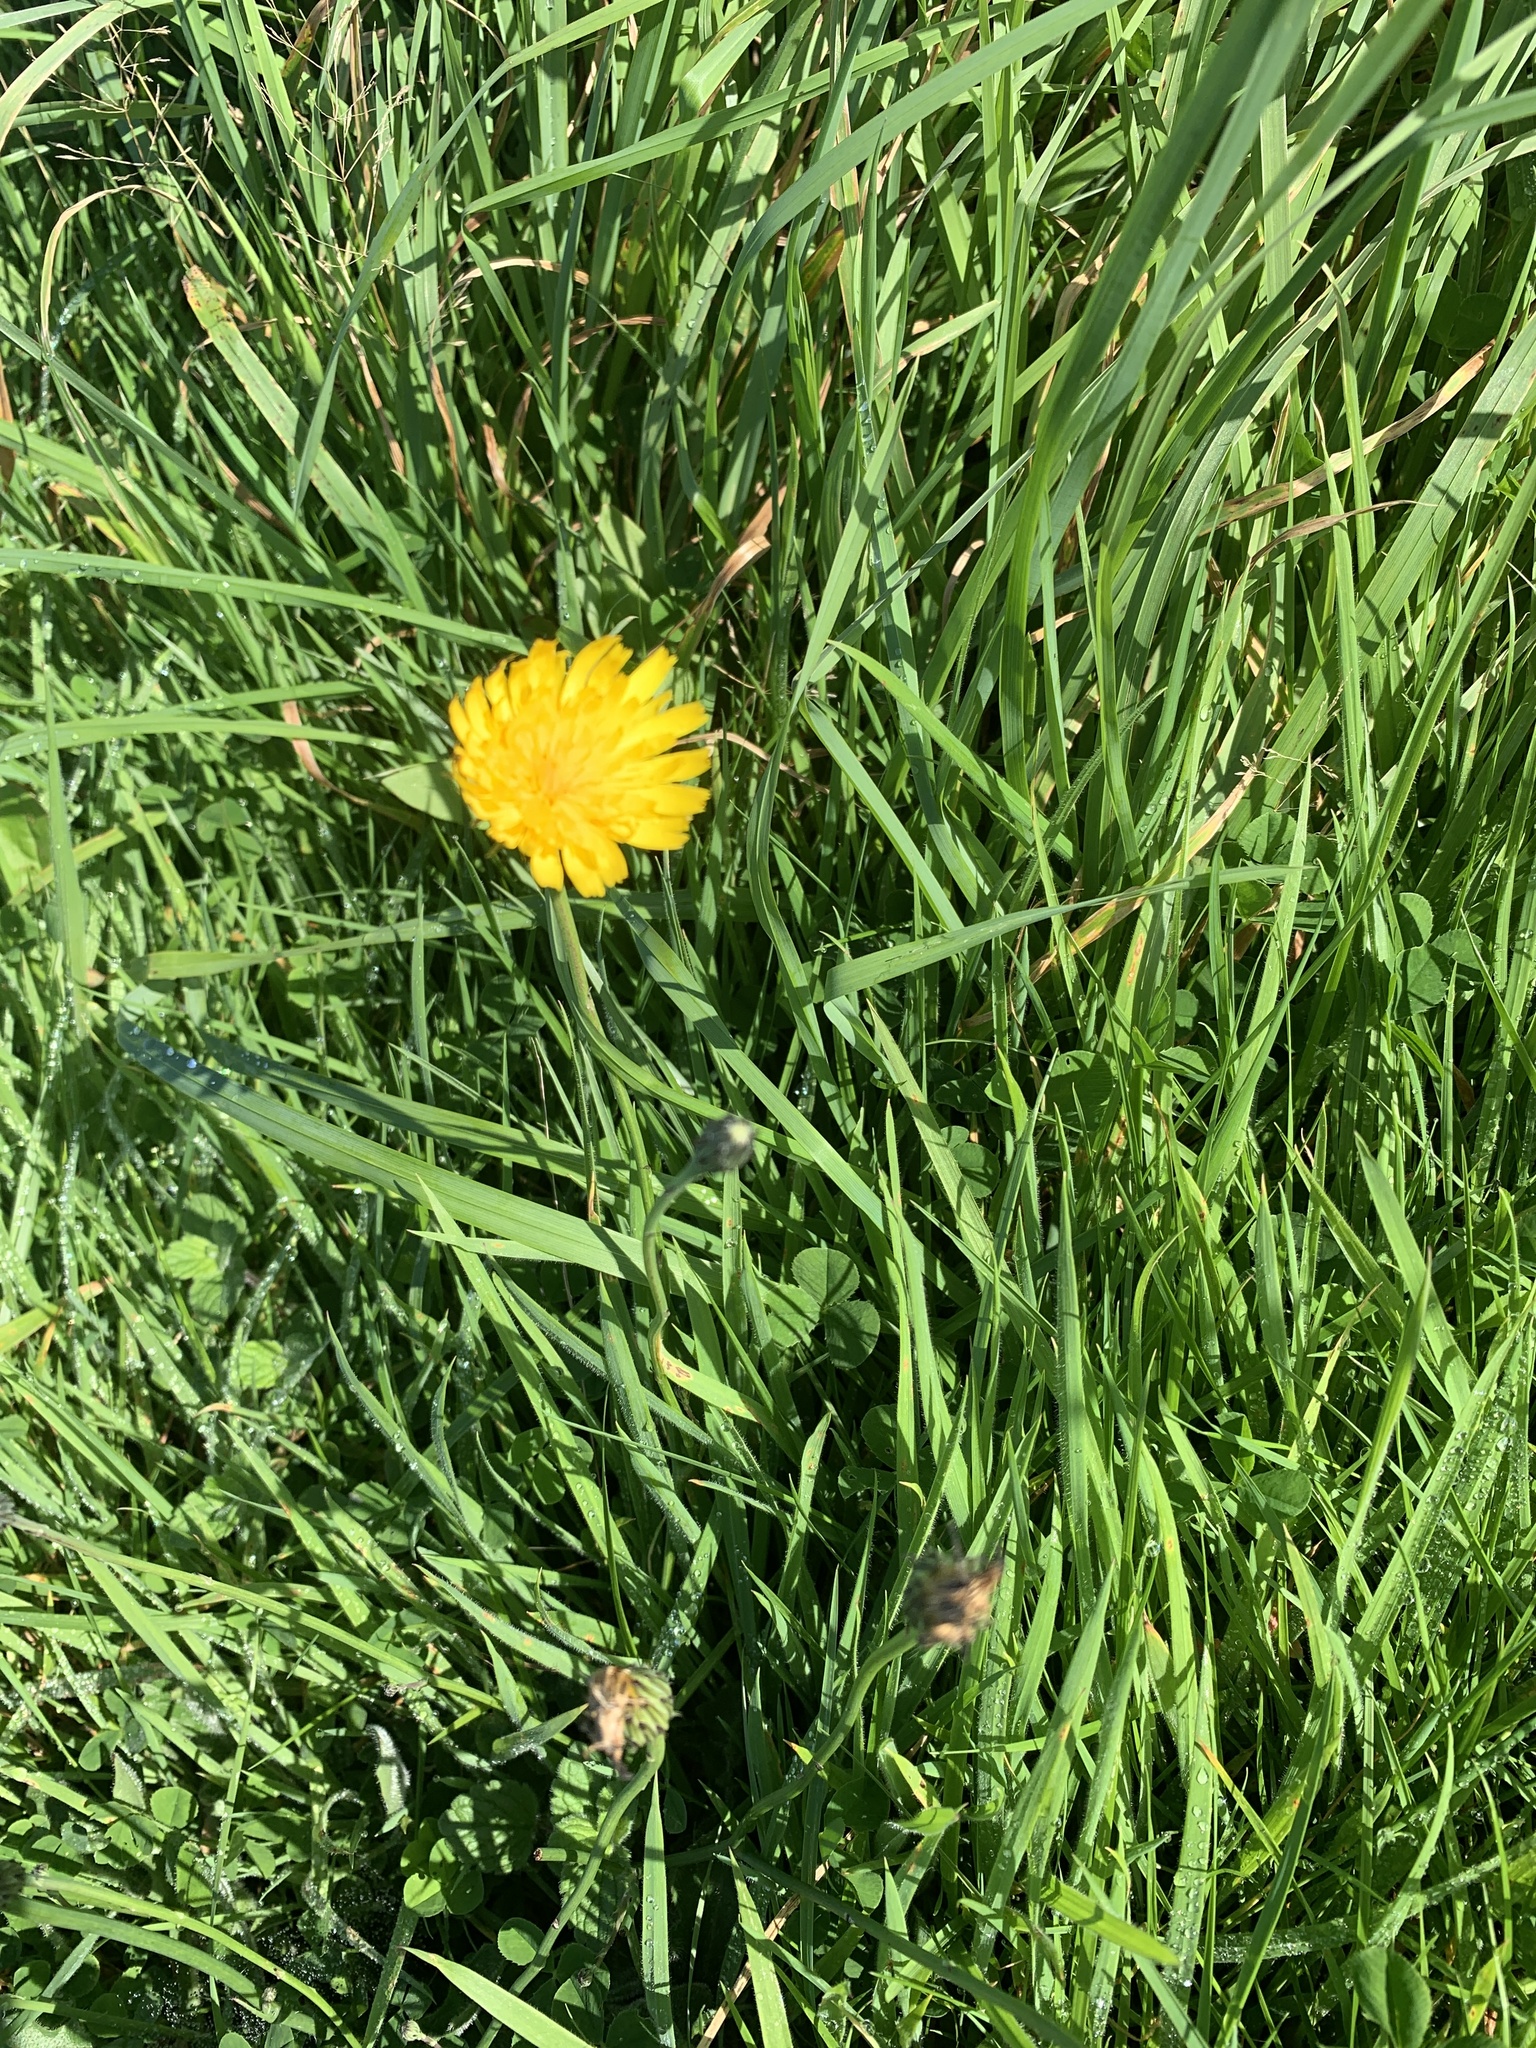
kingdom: Plantae
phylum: Tracheophyta
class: Magnoliopsida
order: Asterales
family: Asteraceae
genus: Hypochaeris
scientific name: Hypochaeris radicata
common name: Flatweed
